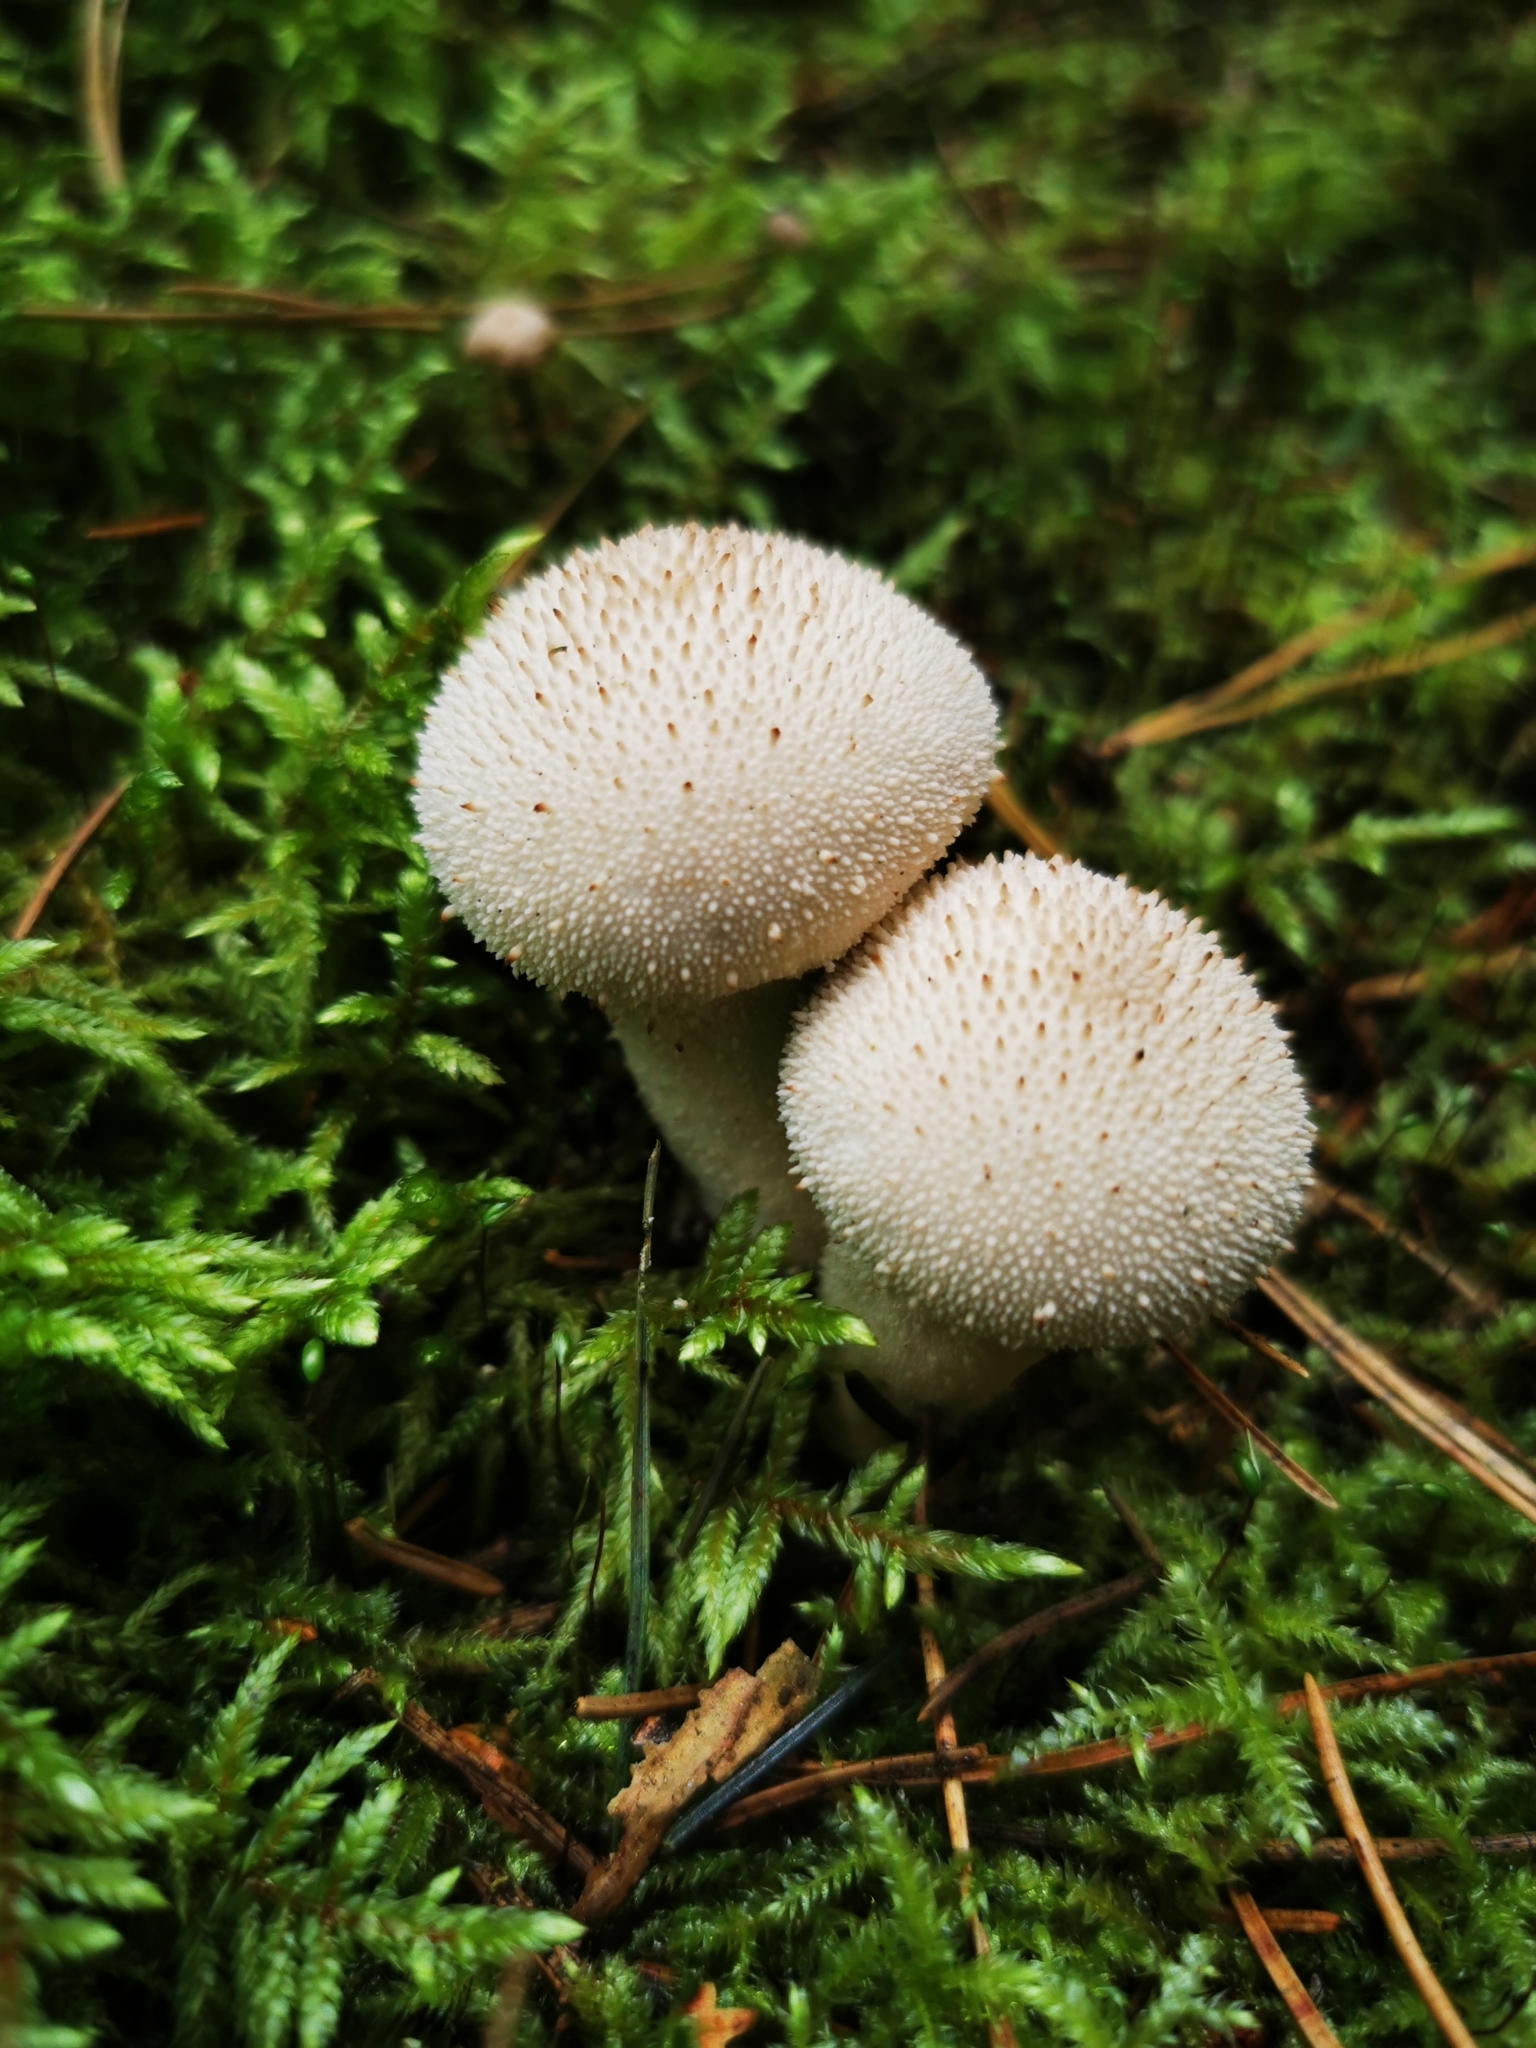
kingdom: Fungi
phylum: Basidiomycota
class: Agaricomycetes
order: Agaricales
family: Lycoperdaceae
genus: Lycoperdon
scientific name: Lycoperdon perlatum
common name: Common puffball
